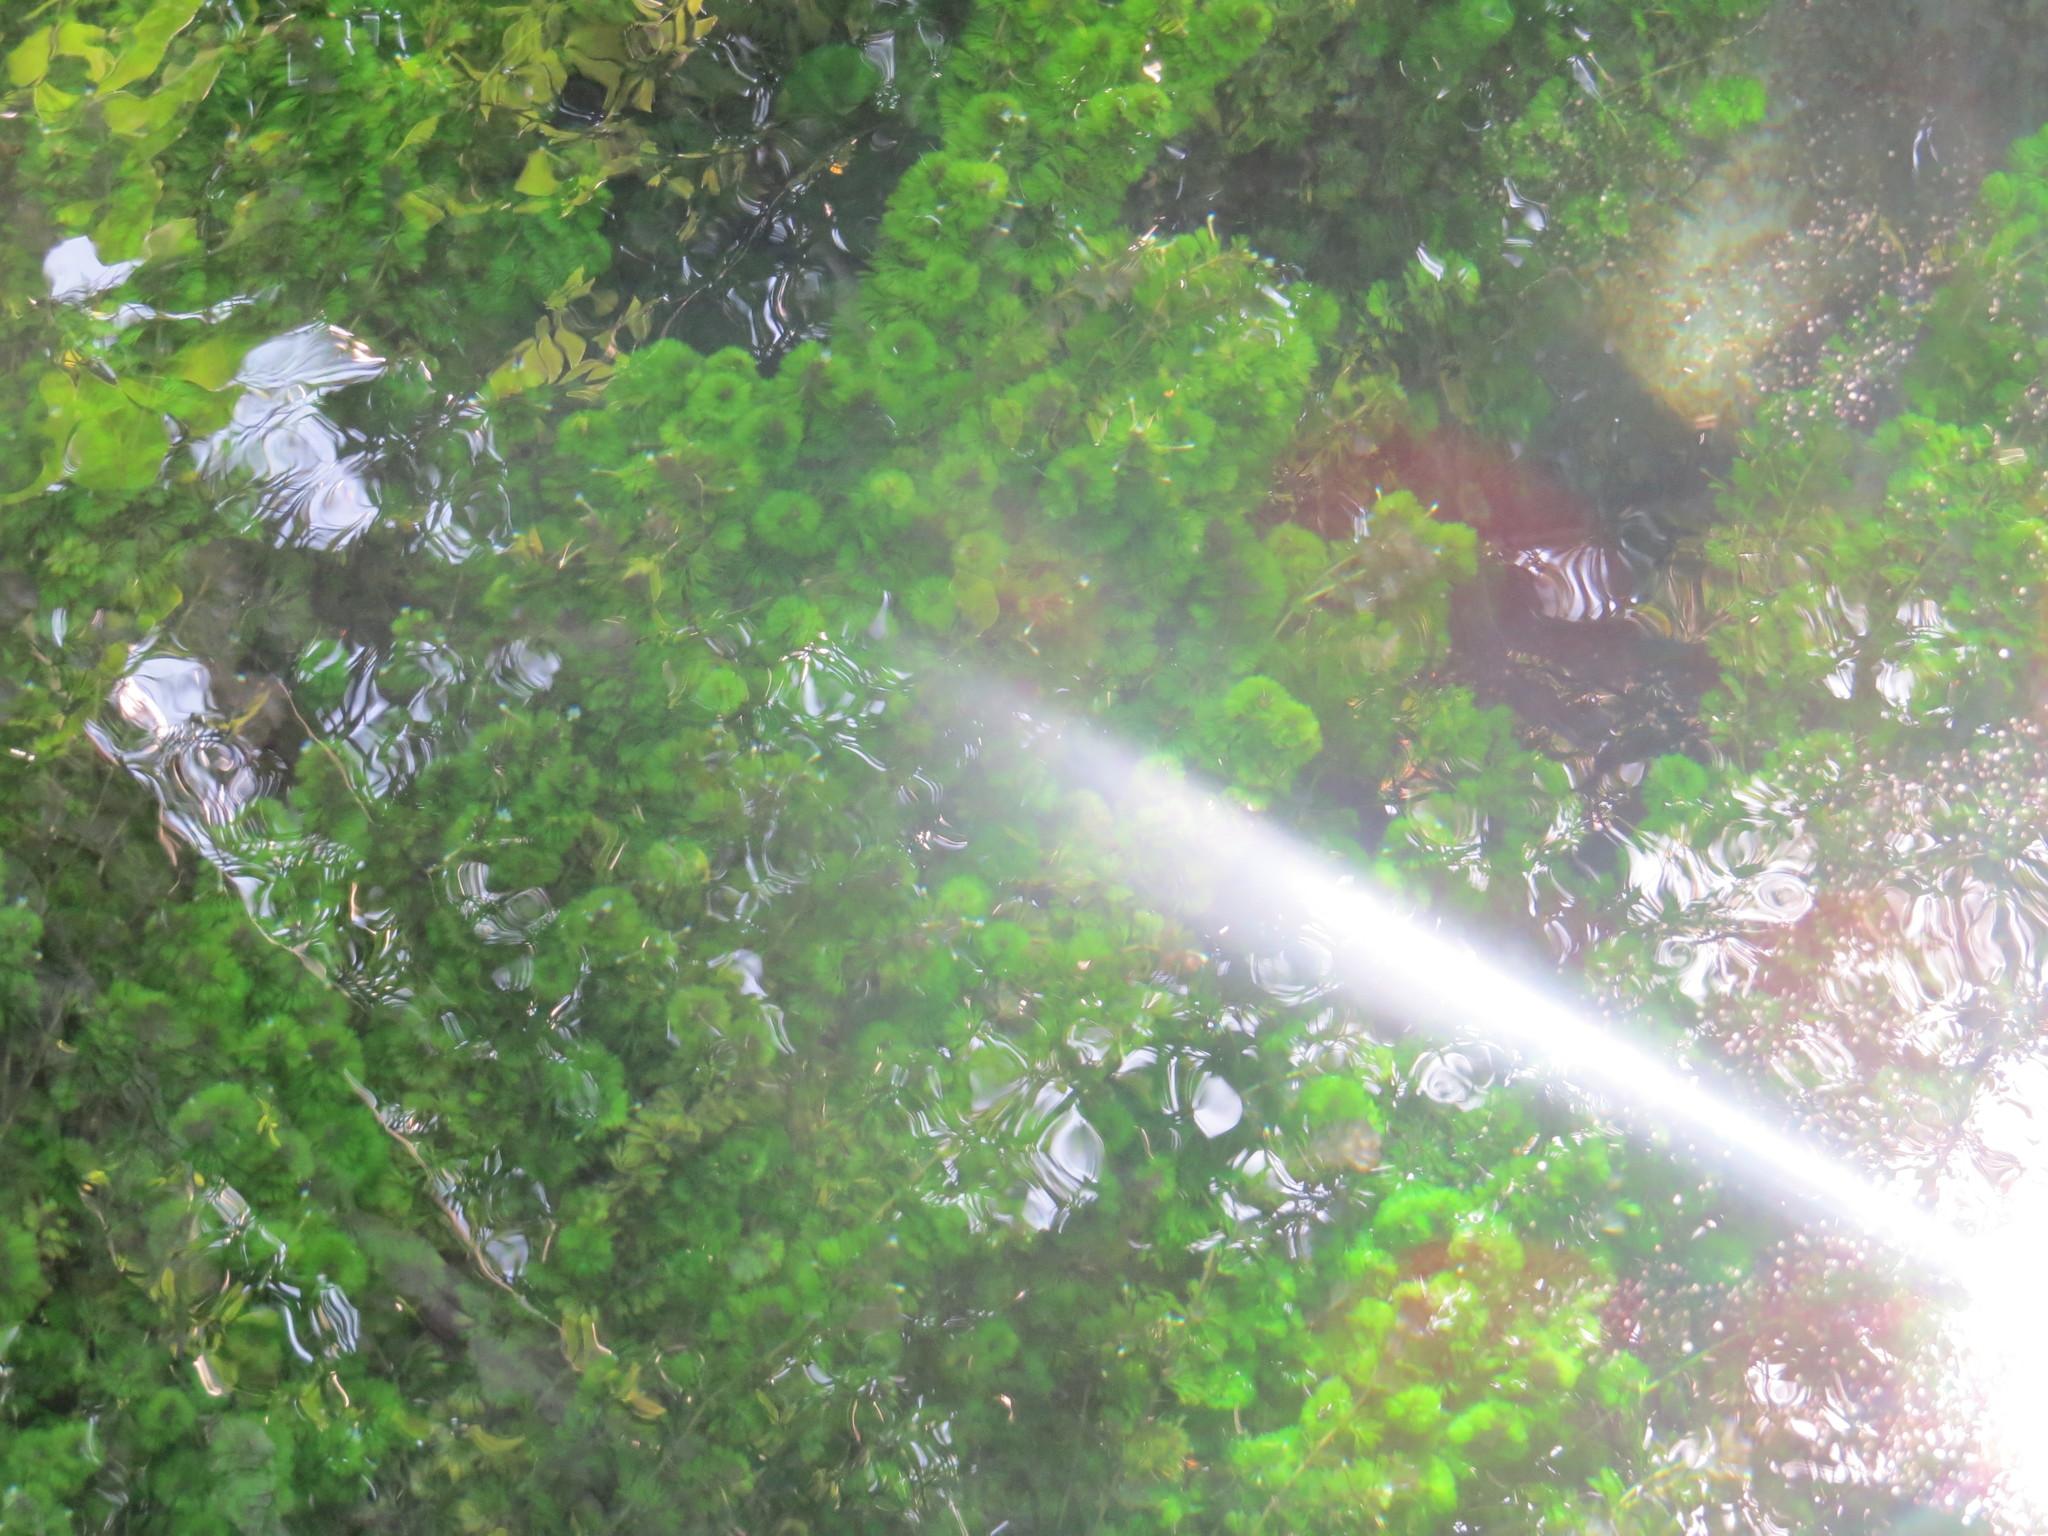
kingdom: Plantae
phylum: Tracheophyta
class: Magnoliopsida
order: Nymphaeales
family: Cabombaceae
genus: Cabomba
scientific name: Cabomba palaeformis
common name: Fish-grass
